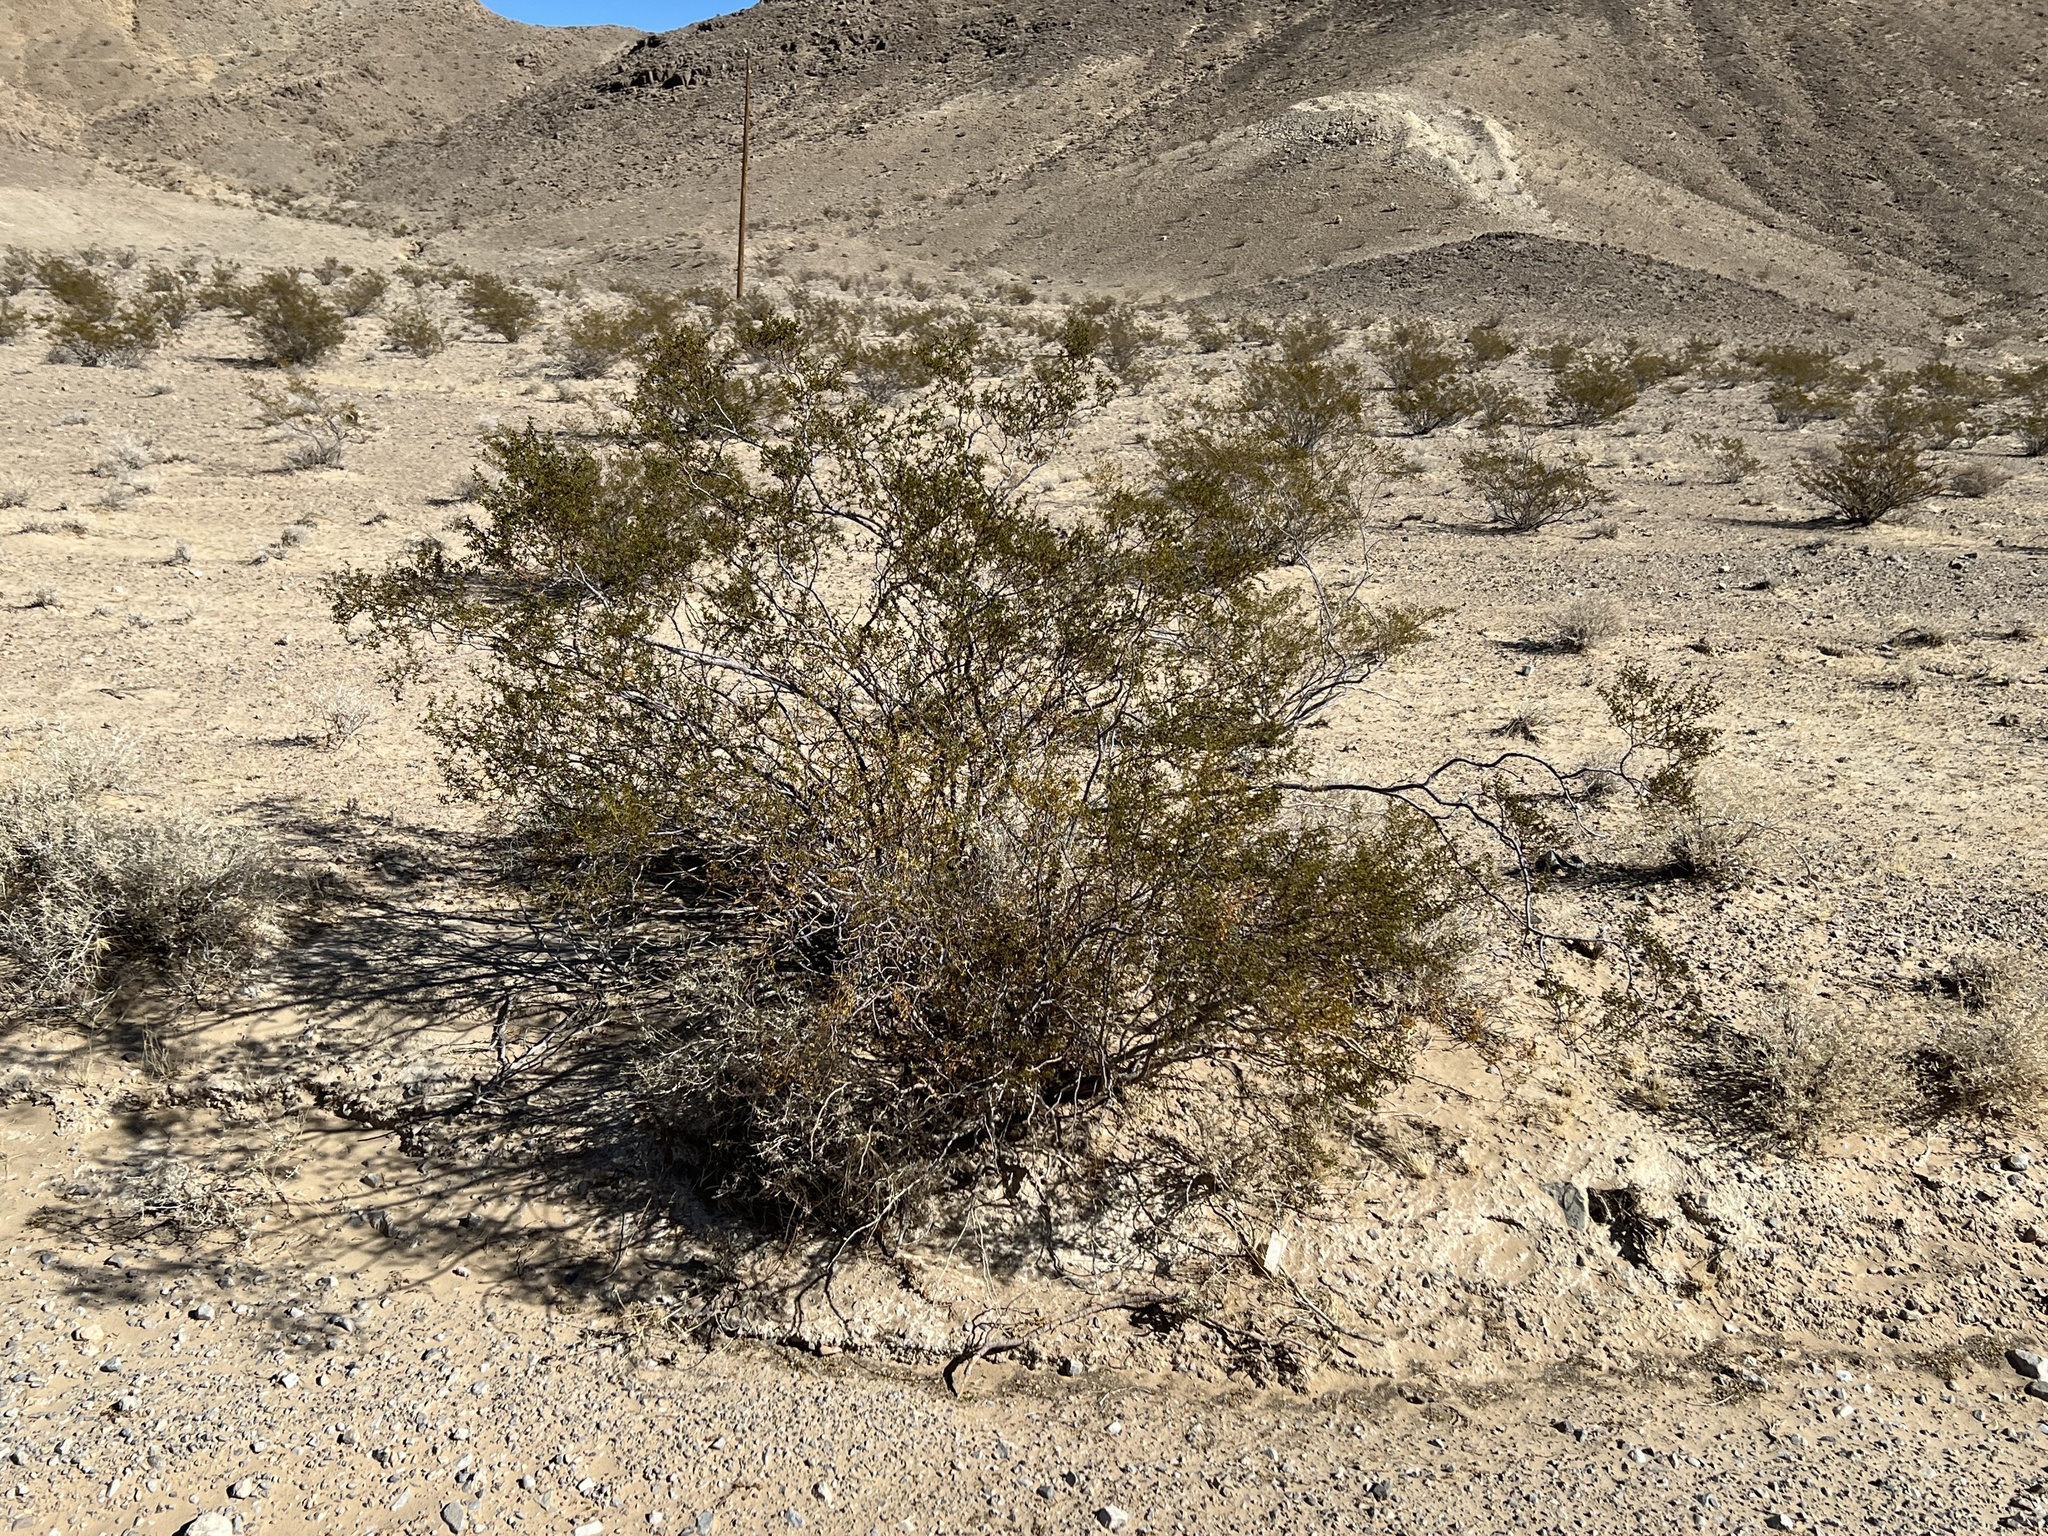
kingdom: Plantae
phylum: Tracheophyta
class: Magnoliopsida
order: Zygophyllales
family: Zygophyllaceae
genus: Larrea
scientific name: Larrea tridentata
